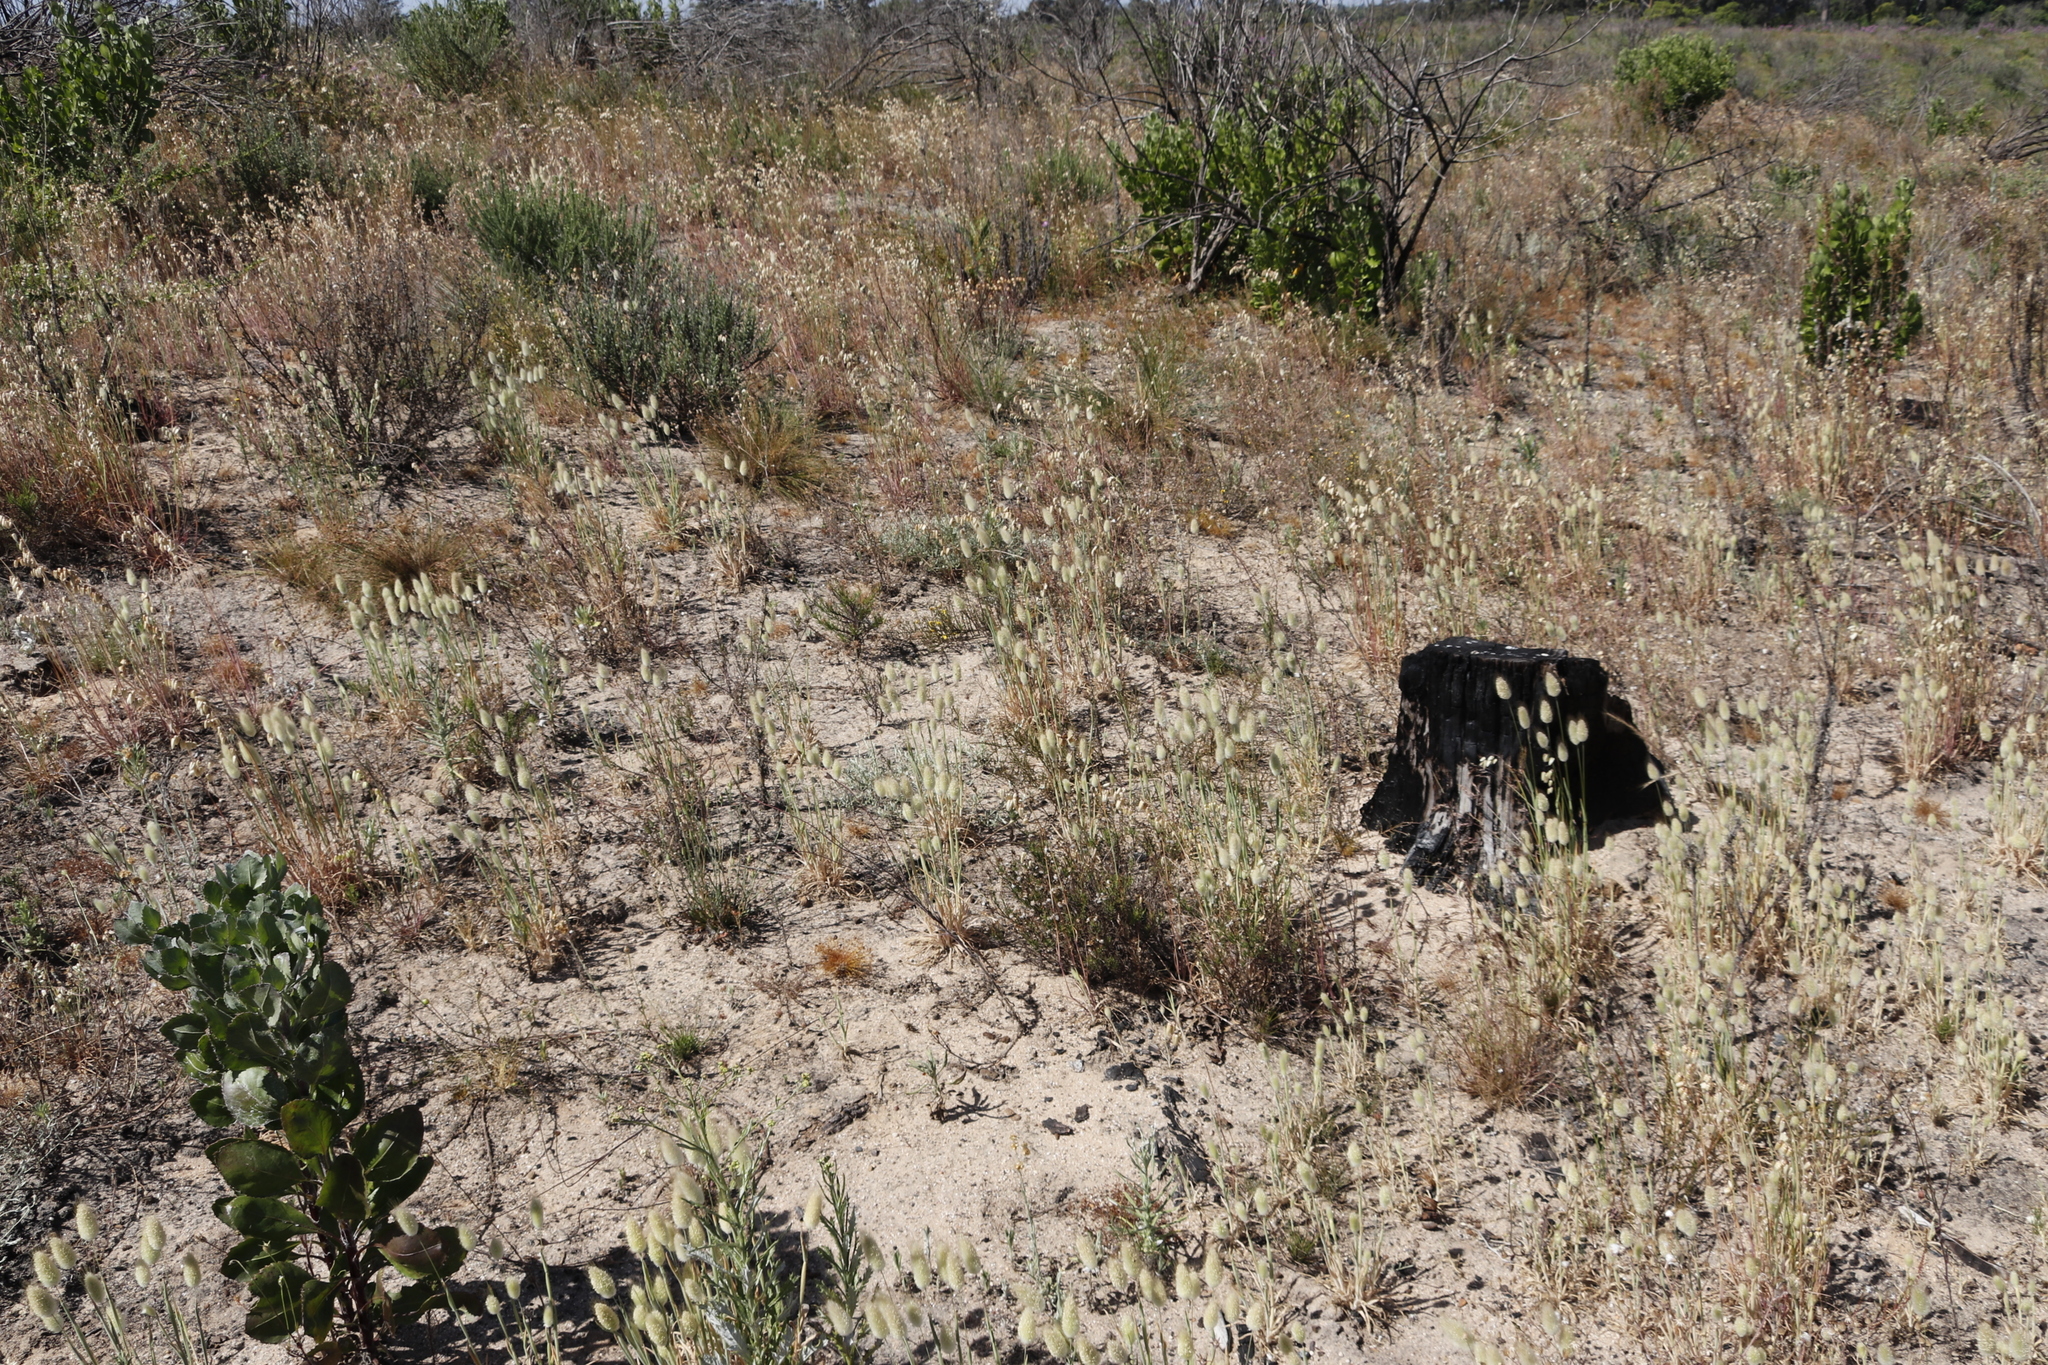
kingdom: Plantae
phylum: Tracheophyta
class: Liliopsida
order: Poales
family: Poaceae
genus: Lagurus
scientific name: Lagurus ovatus
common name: Hare's-tail
